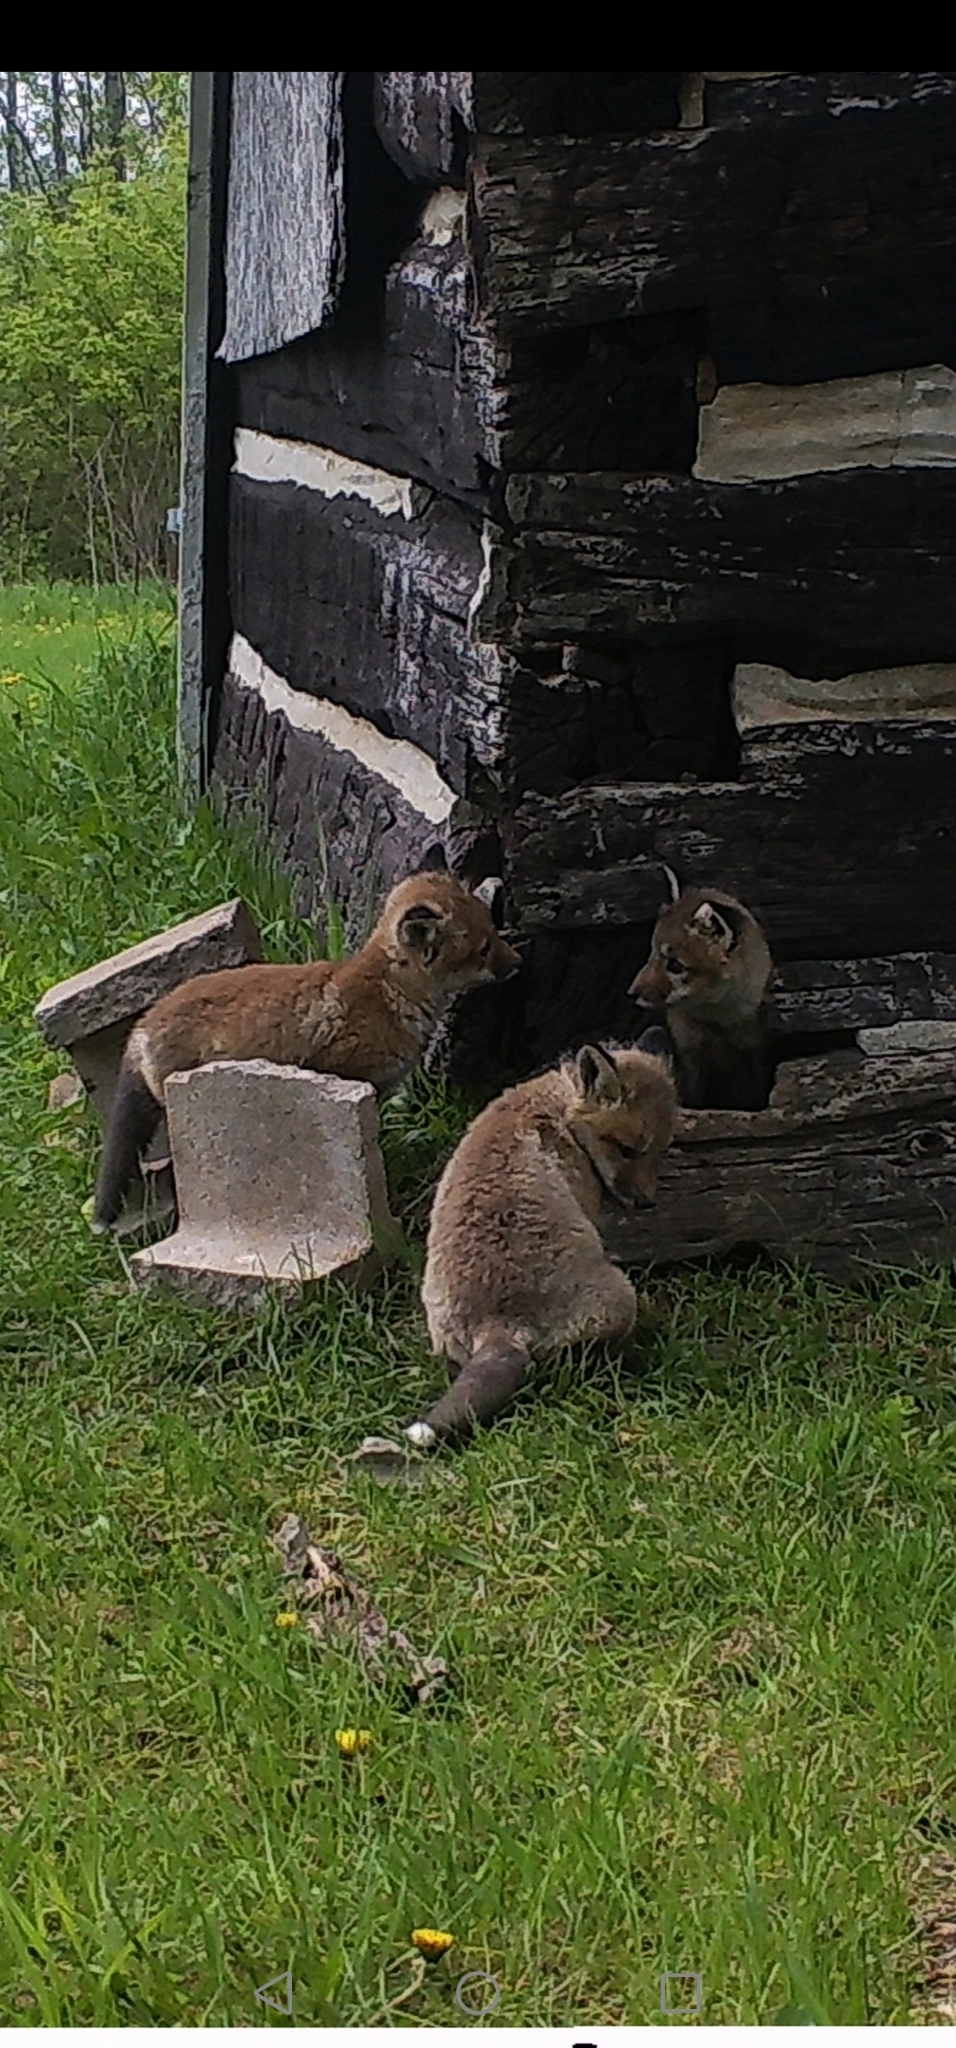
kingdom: Animalia
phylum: Chordata
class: Mammalia
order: Carnivora
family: Canidae
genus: Vulpes
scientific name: Vulpes vulpes
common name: Red fox
